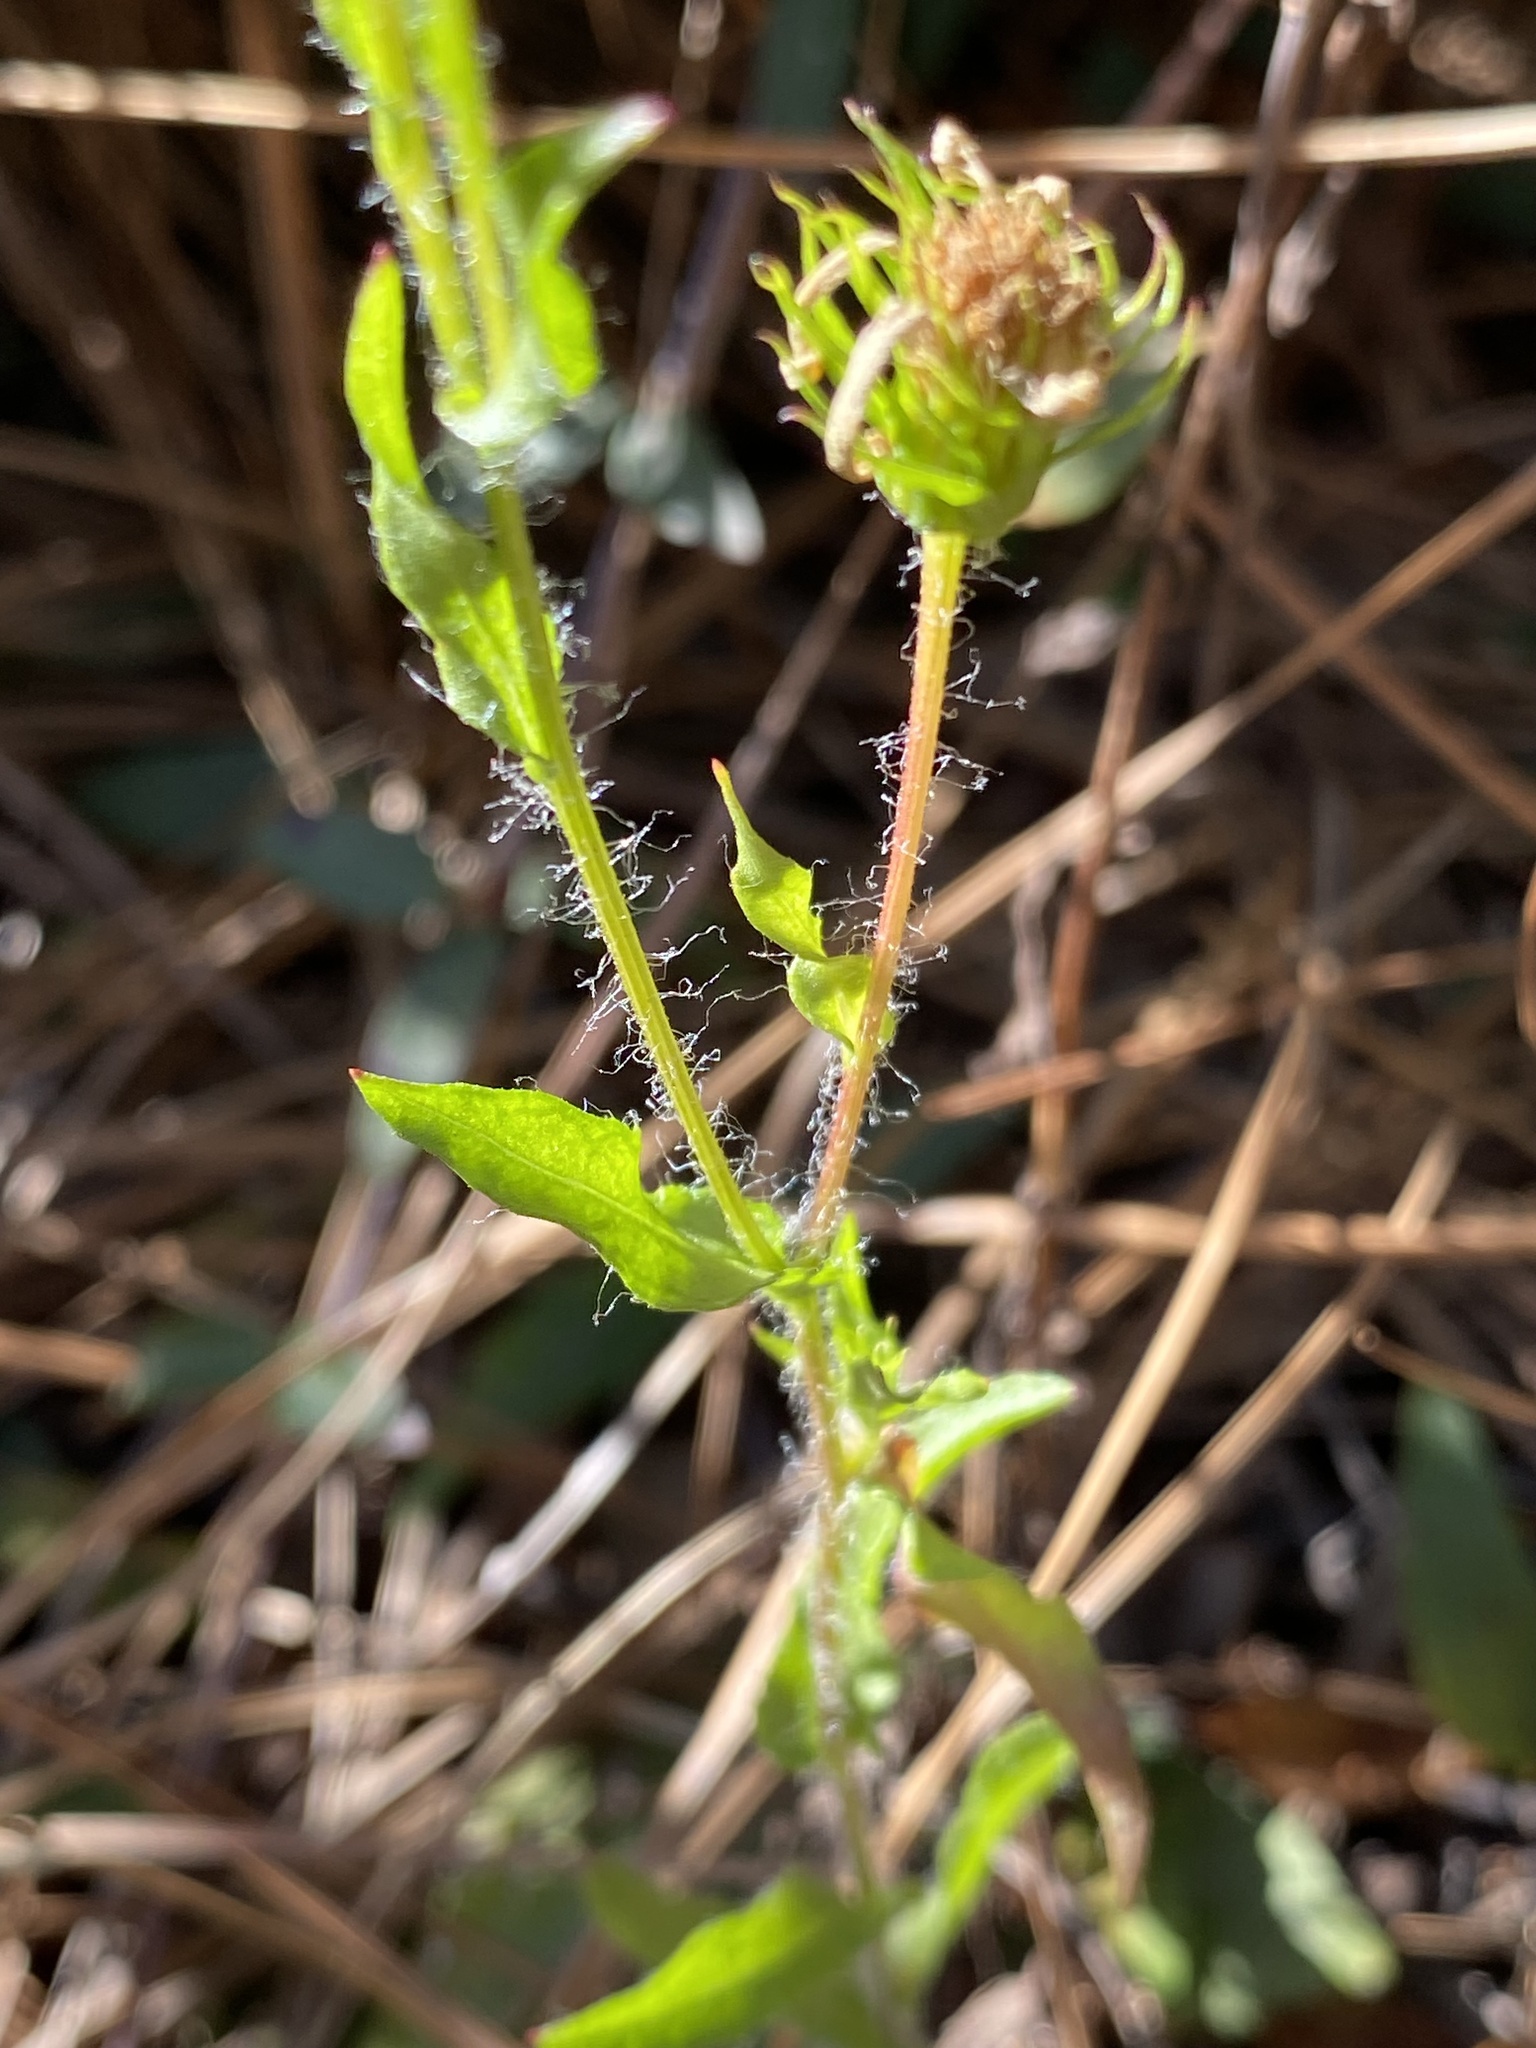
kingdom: Plantae
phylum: Tracheophyta
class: Magnoliopsida
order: Asterales
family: Asteraceae
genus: Chrysopsis
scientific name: Chrysopsis subulata
